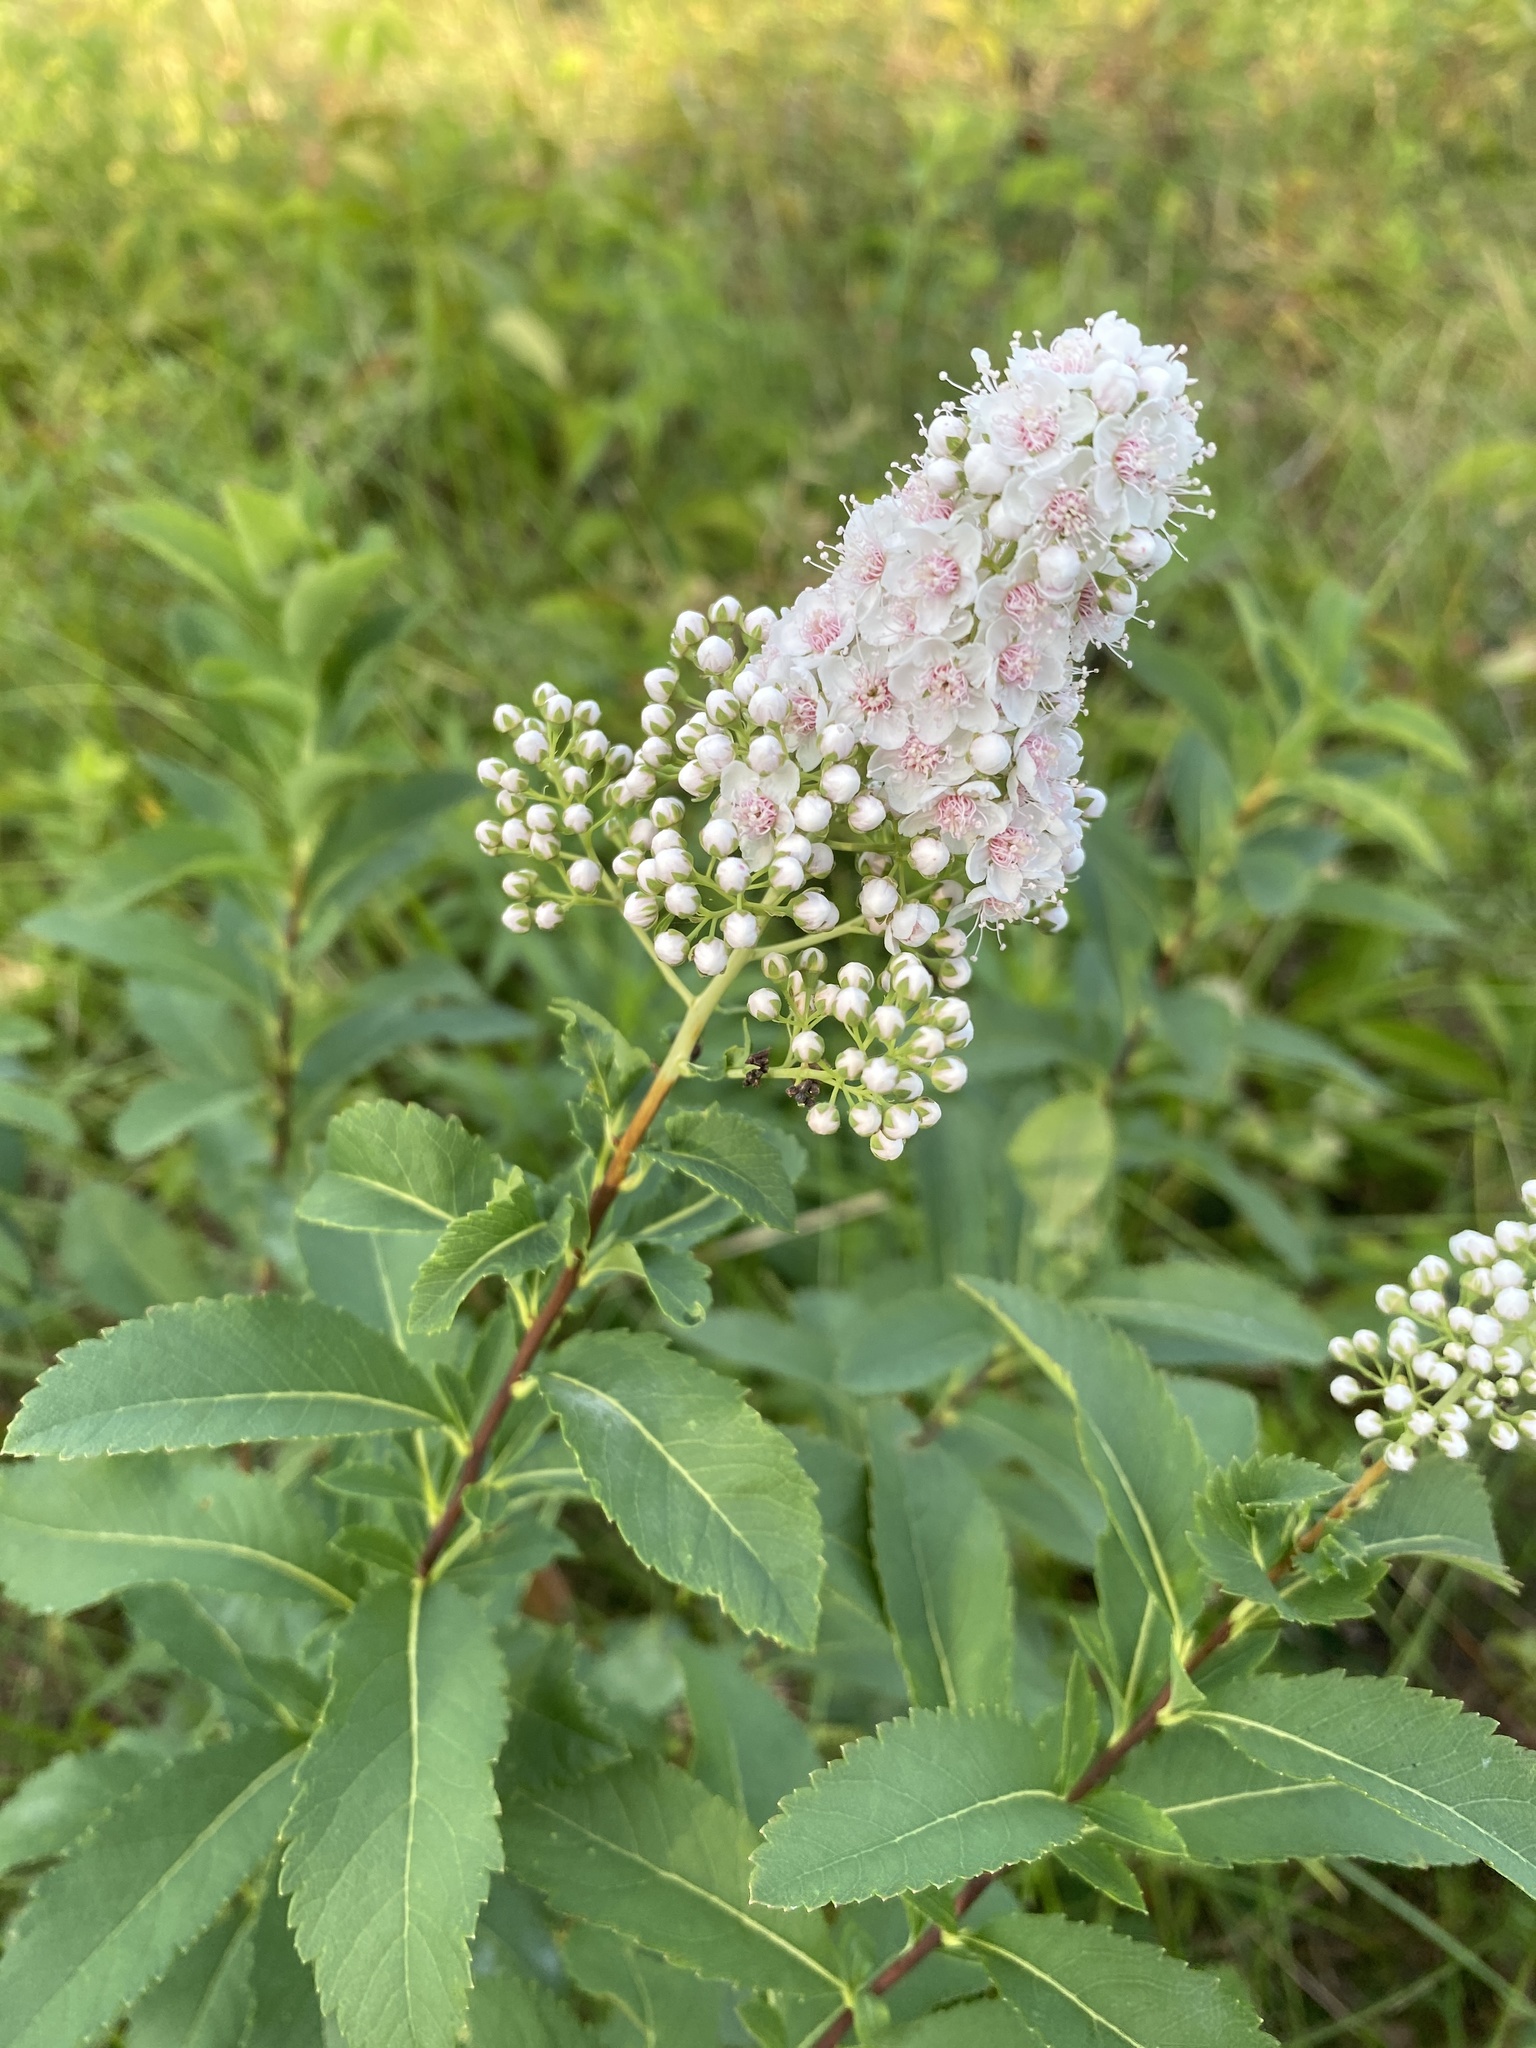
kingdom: Plantae
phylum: Tracheophyta
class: Magnoliopsida
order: Rosales
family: Rosaceae
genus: Spiraea
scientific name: Spiraea alba
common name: Pale bridewort
